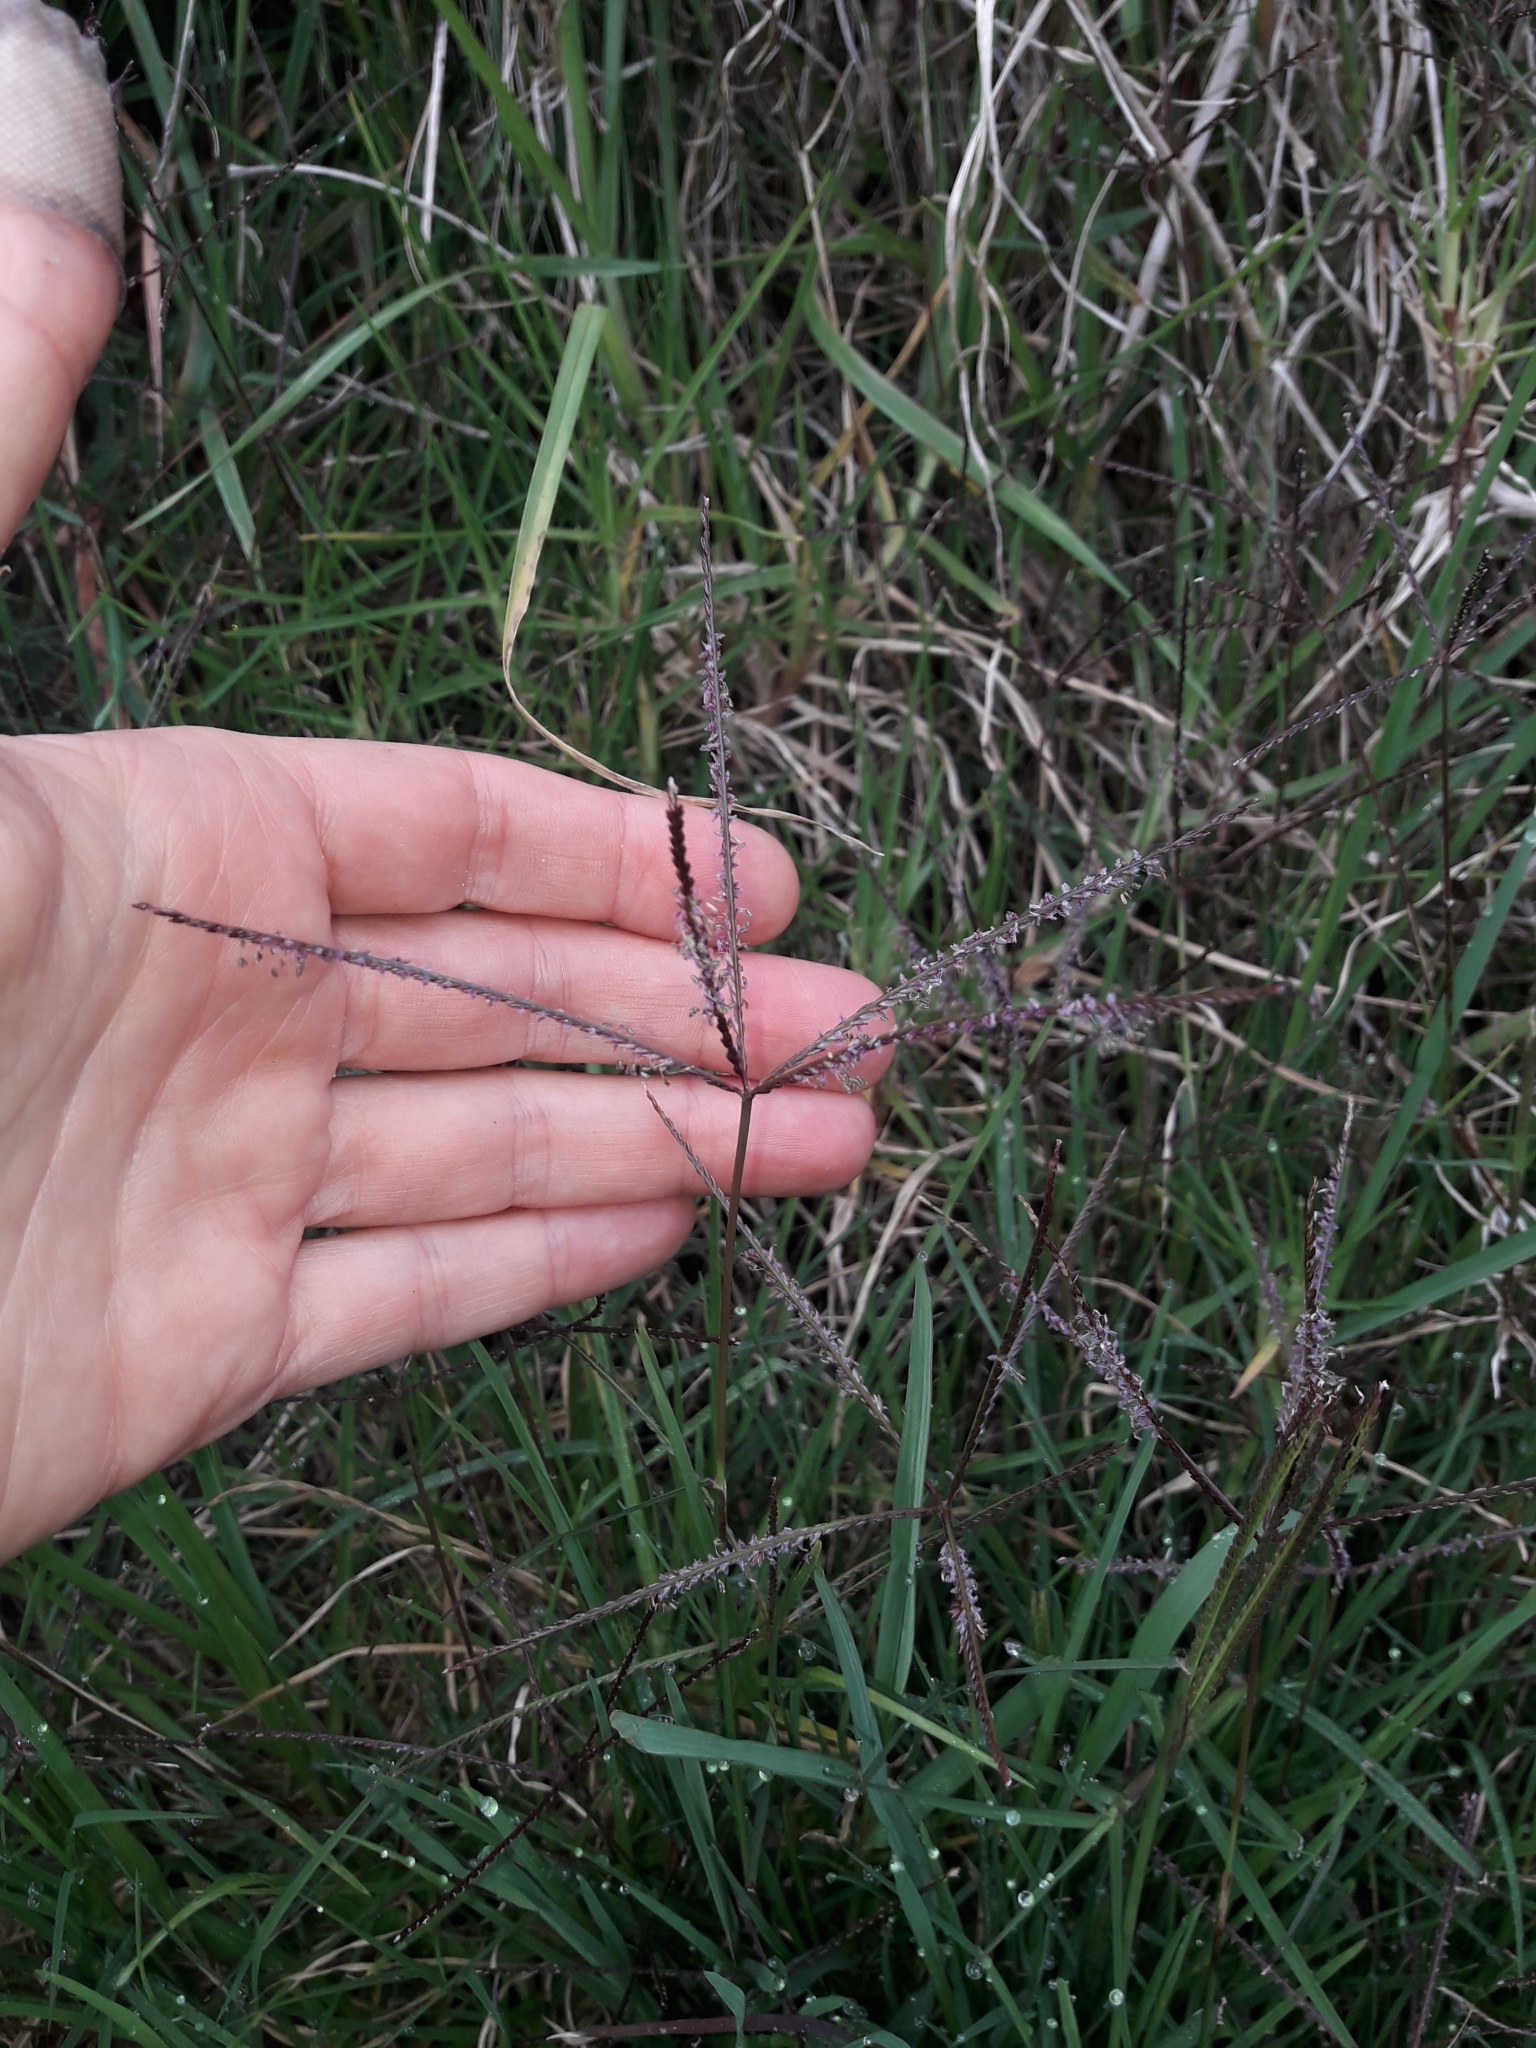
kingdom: Plantae
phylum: Tracheophyta
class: Liliopsida
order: Poales
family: Poaceae
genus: Cynodon
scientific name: Cynodon dactylon
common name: Bermuda grass
